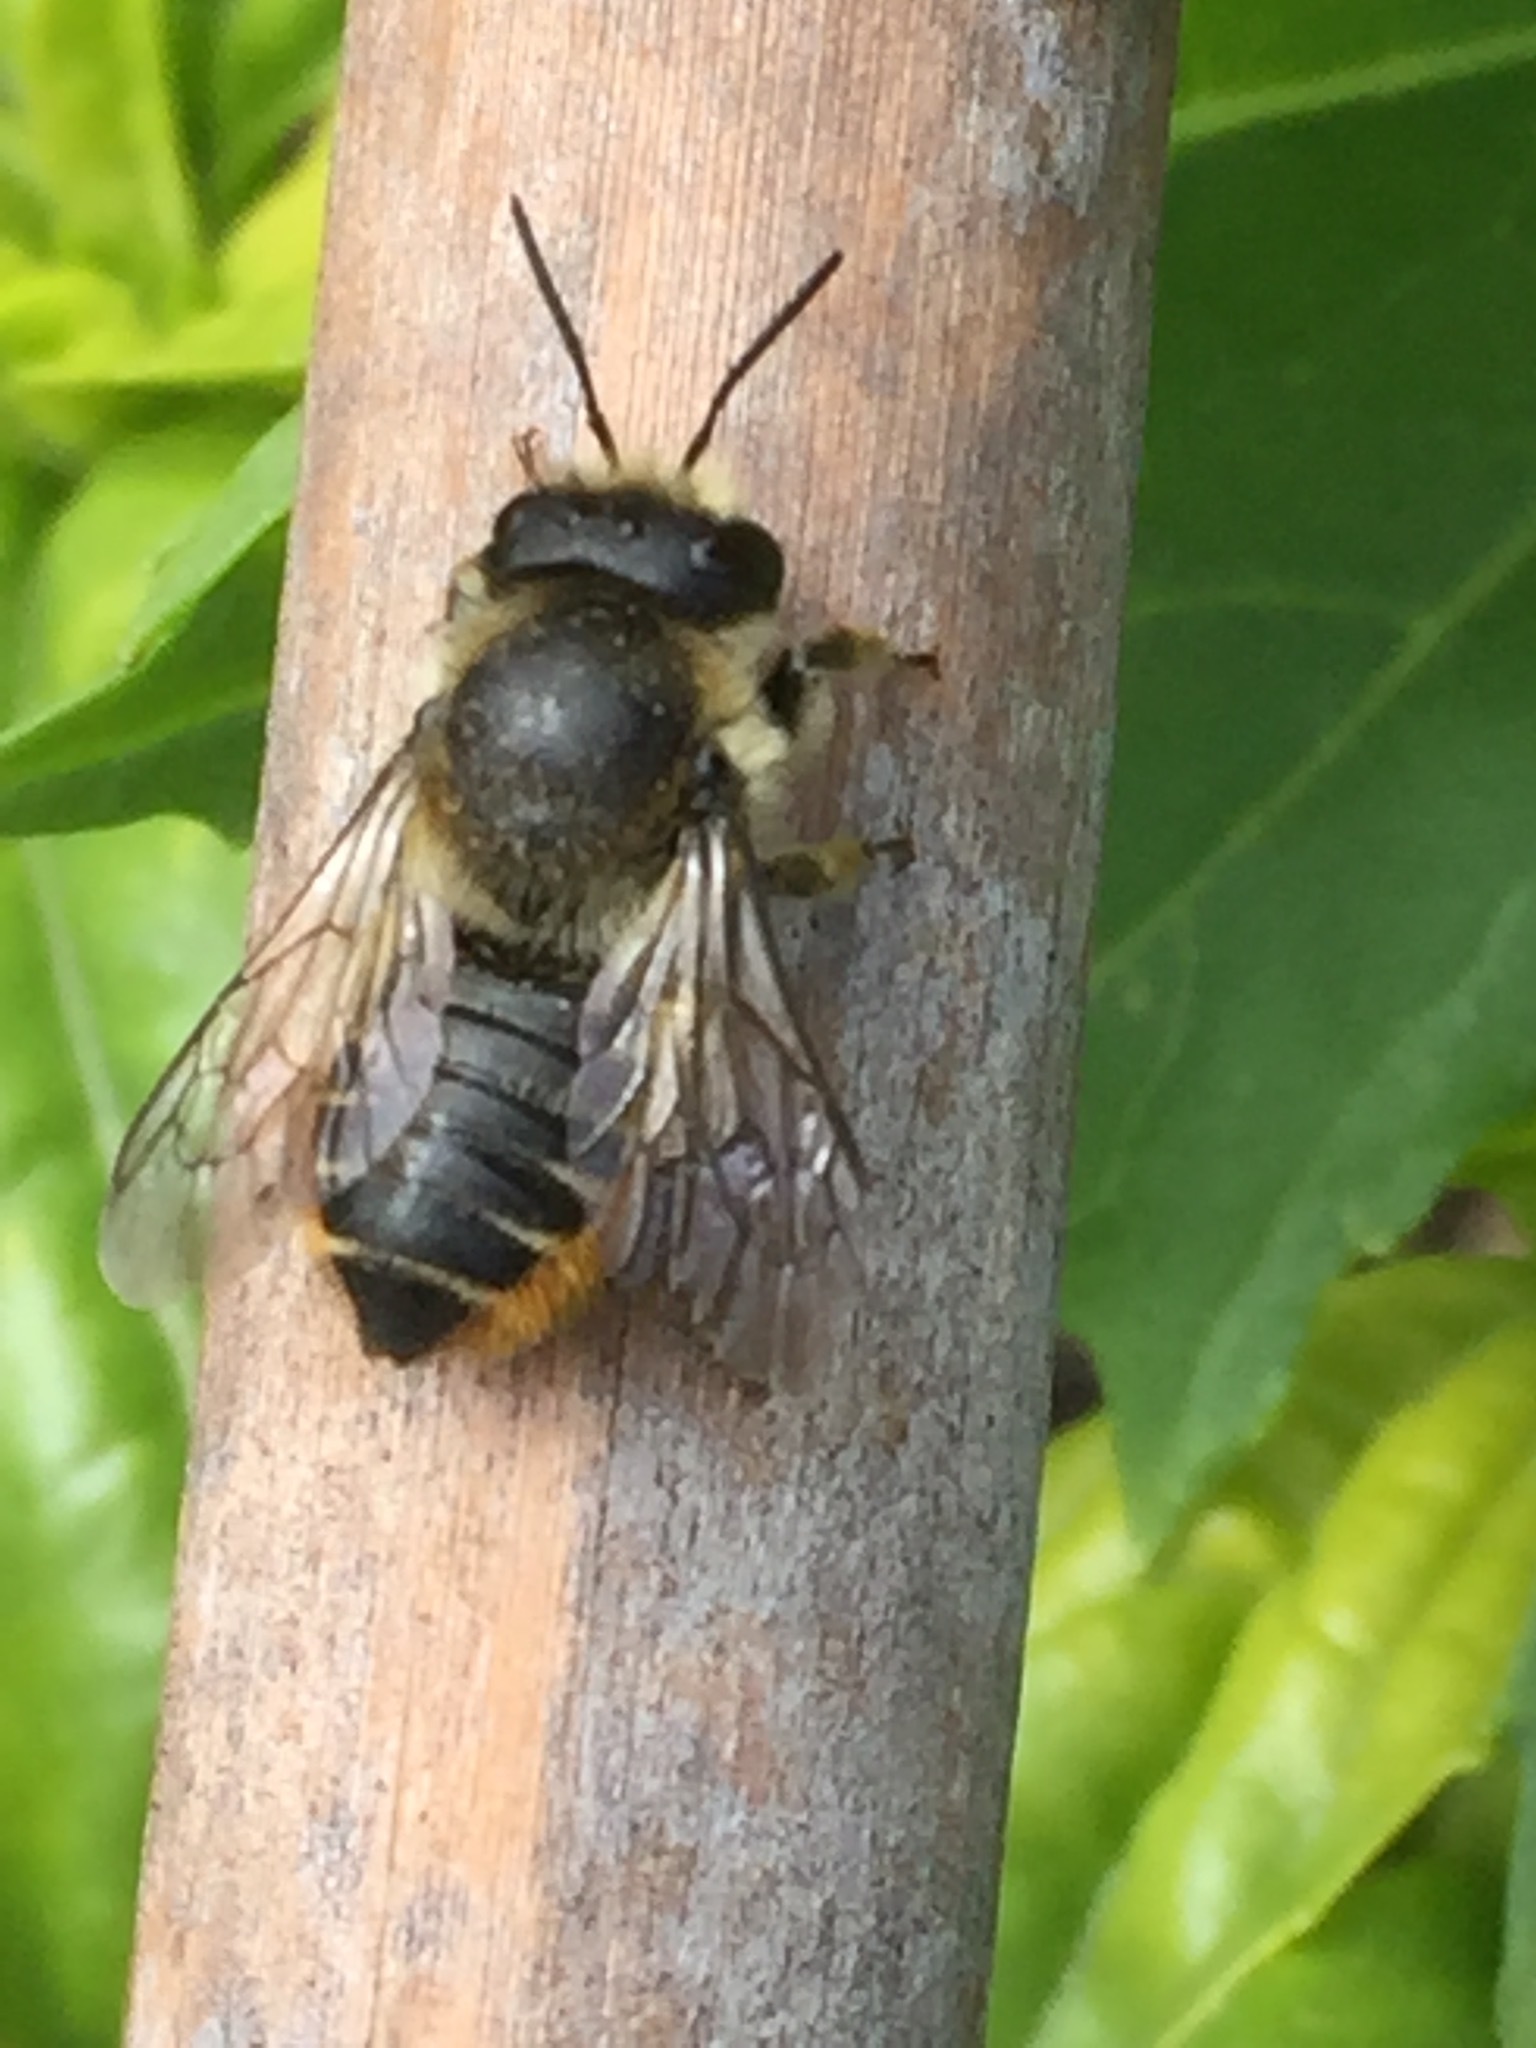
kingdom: Animalia
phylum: Arthropoda
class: Insecta
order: Hymenoptera
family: Megachilidae
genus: Megachile
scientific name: Megachile
